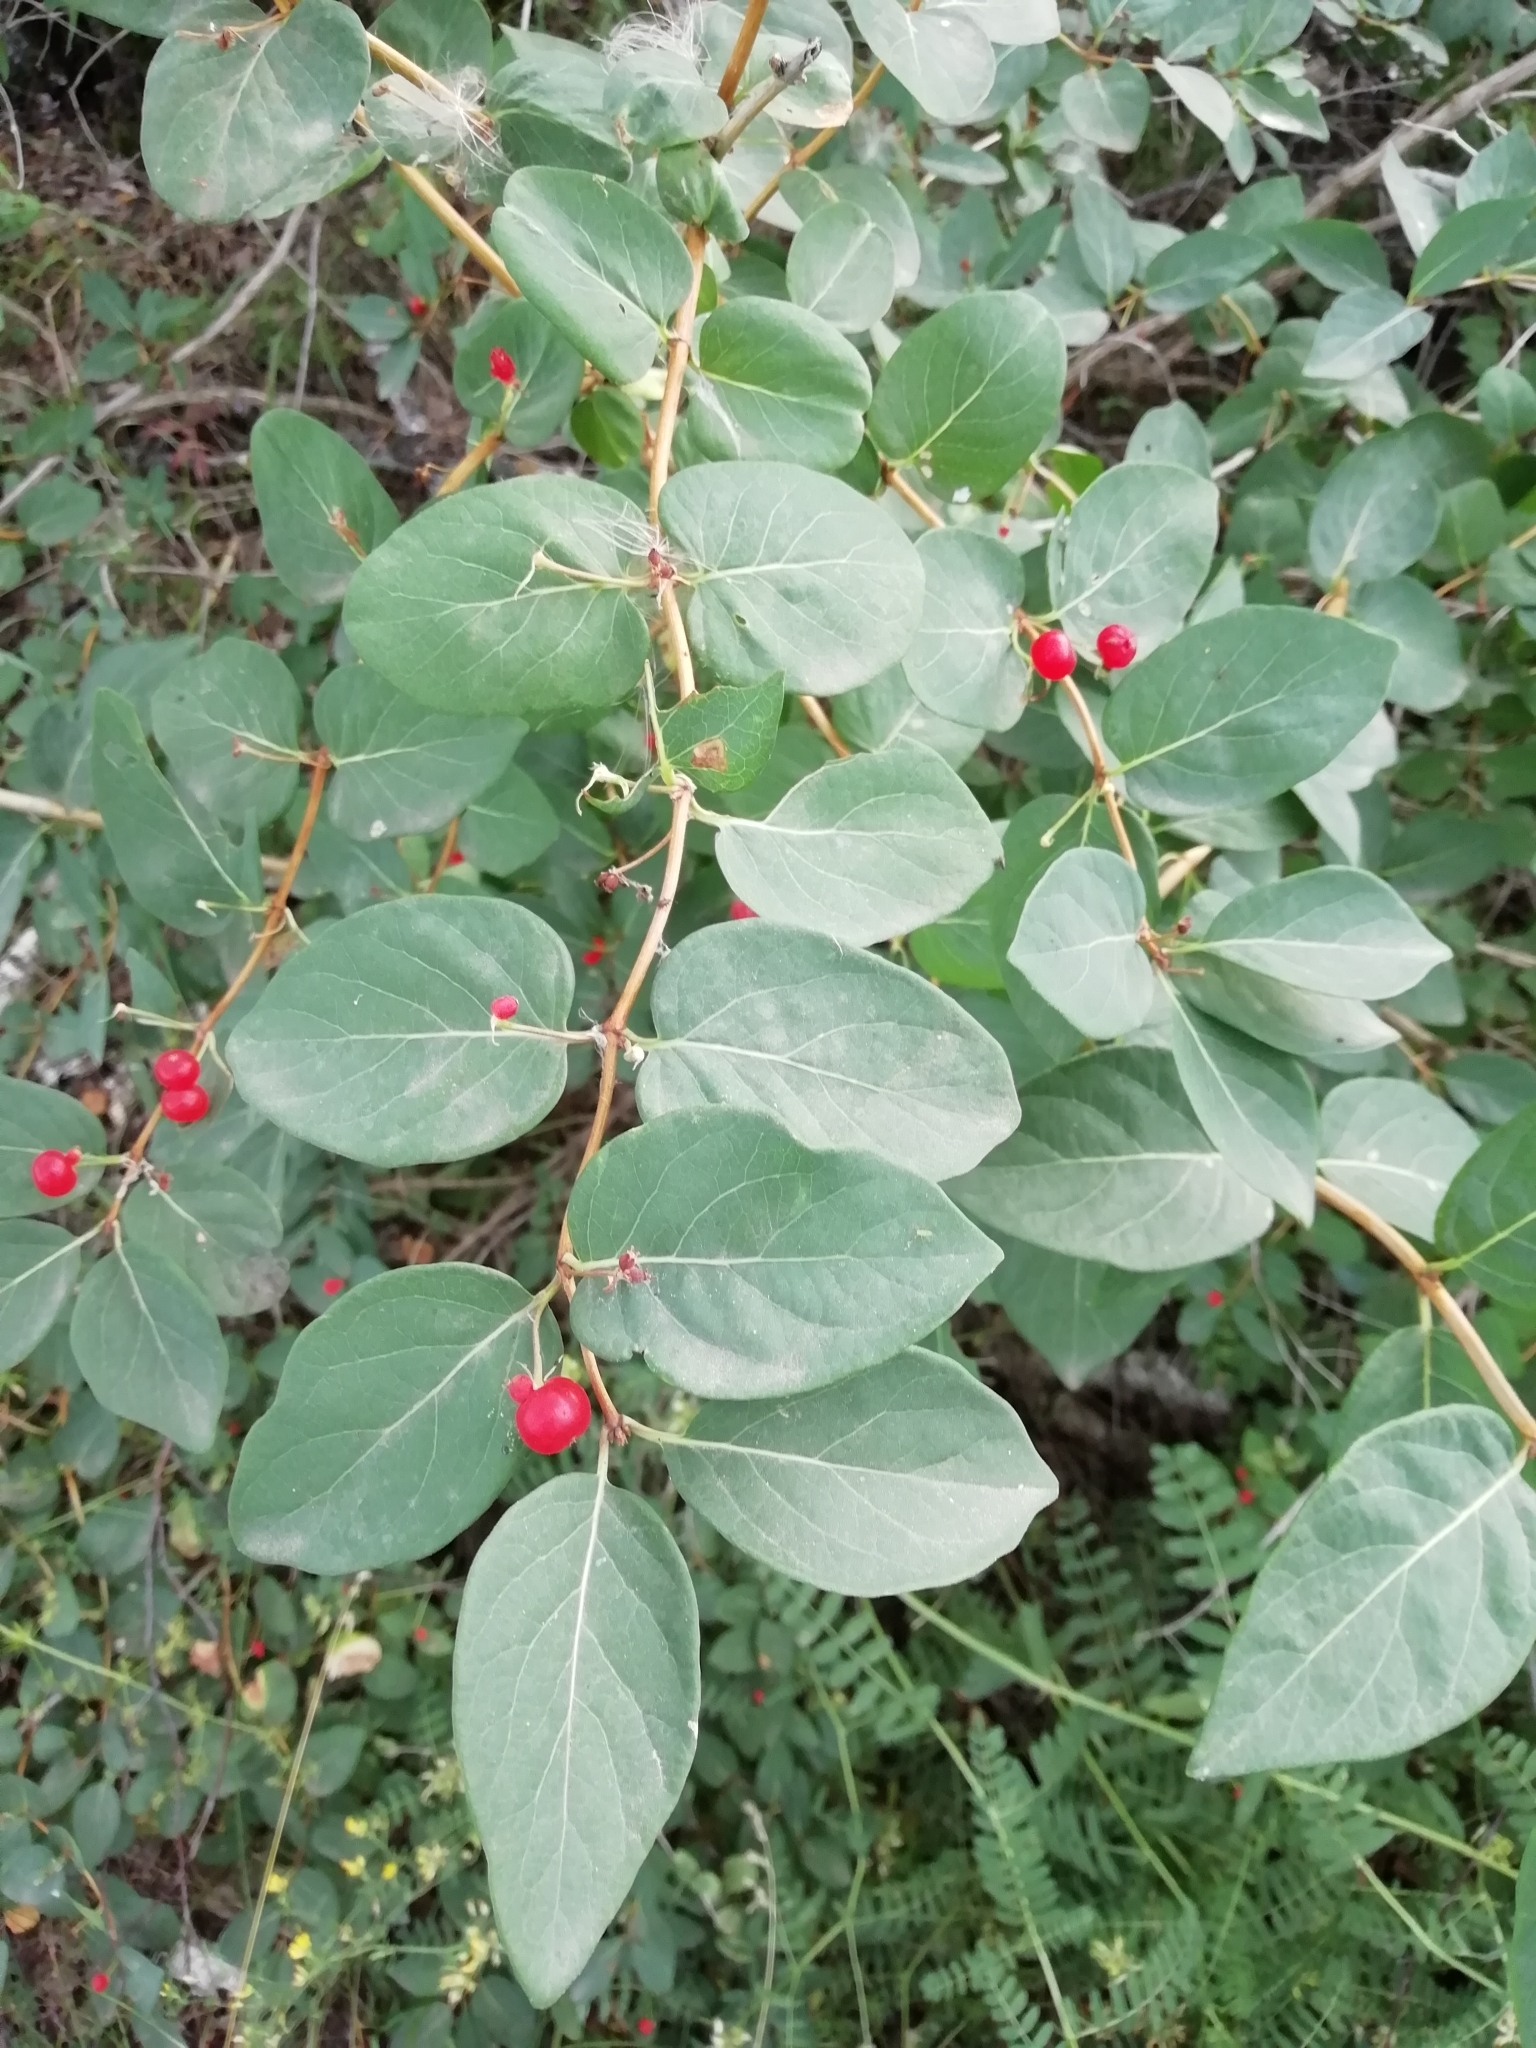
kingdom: Plantae
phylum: Tracheophyta
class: Magnoliopsida
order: Dipsacales
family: Caprifoliaceae
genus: Lonicera
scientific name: Lonicera xylosteum
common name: Fly honeysuckle
